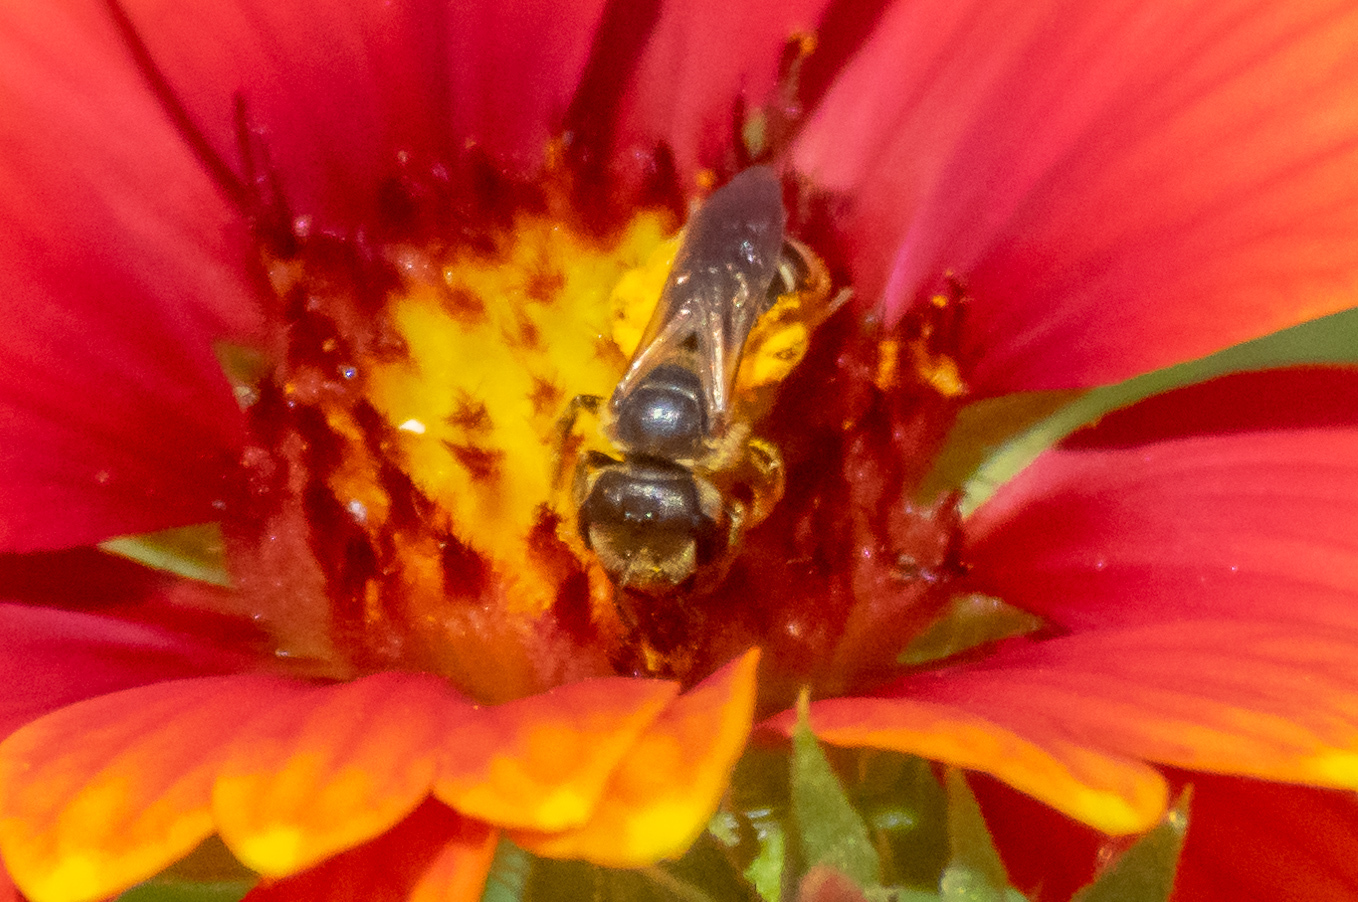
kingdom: Animalia
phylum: Arthropoda
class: Insecta
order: Hymenoptera
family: Halictidae
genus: Halictus
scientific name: Halictus ligatus
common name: Ligated furrow bee
